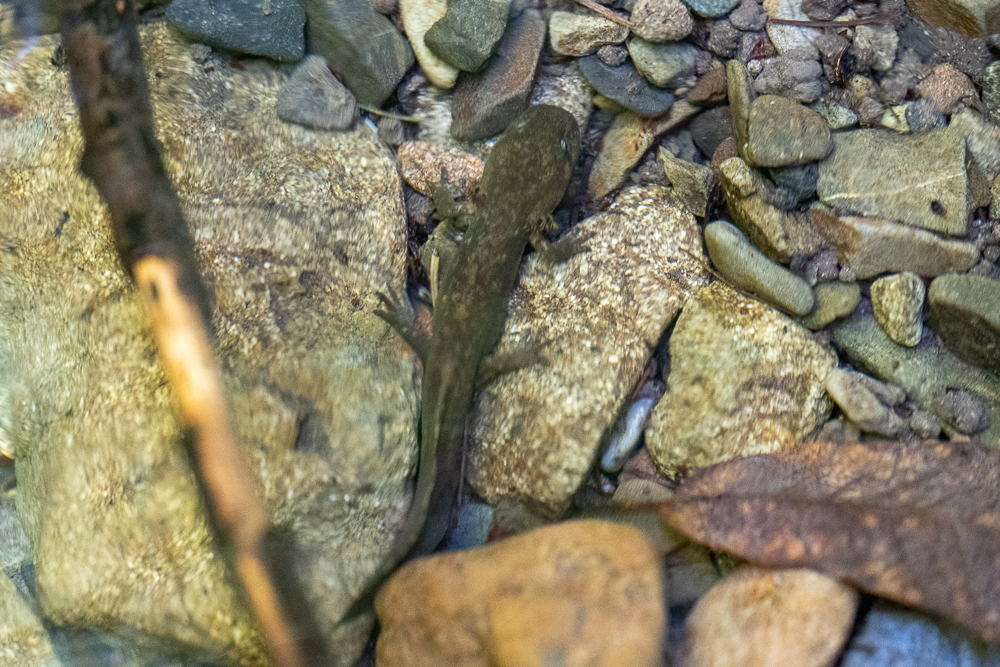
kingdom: Animalia
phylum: Chordata
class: Amphibia
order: Caudata
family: Ambystomatidae
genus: Dicamptodon
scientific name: Dicamptodon ensatus
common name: California giant salamander
